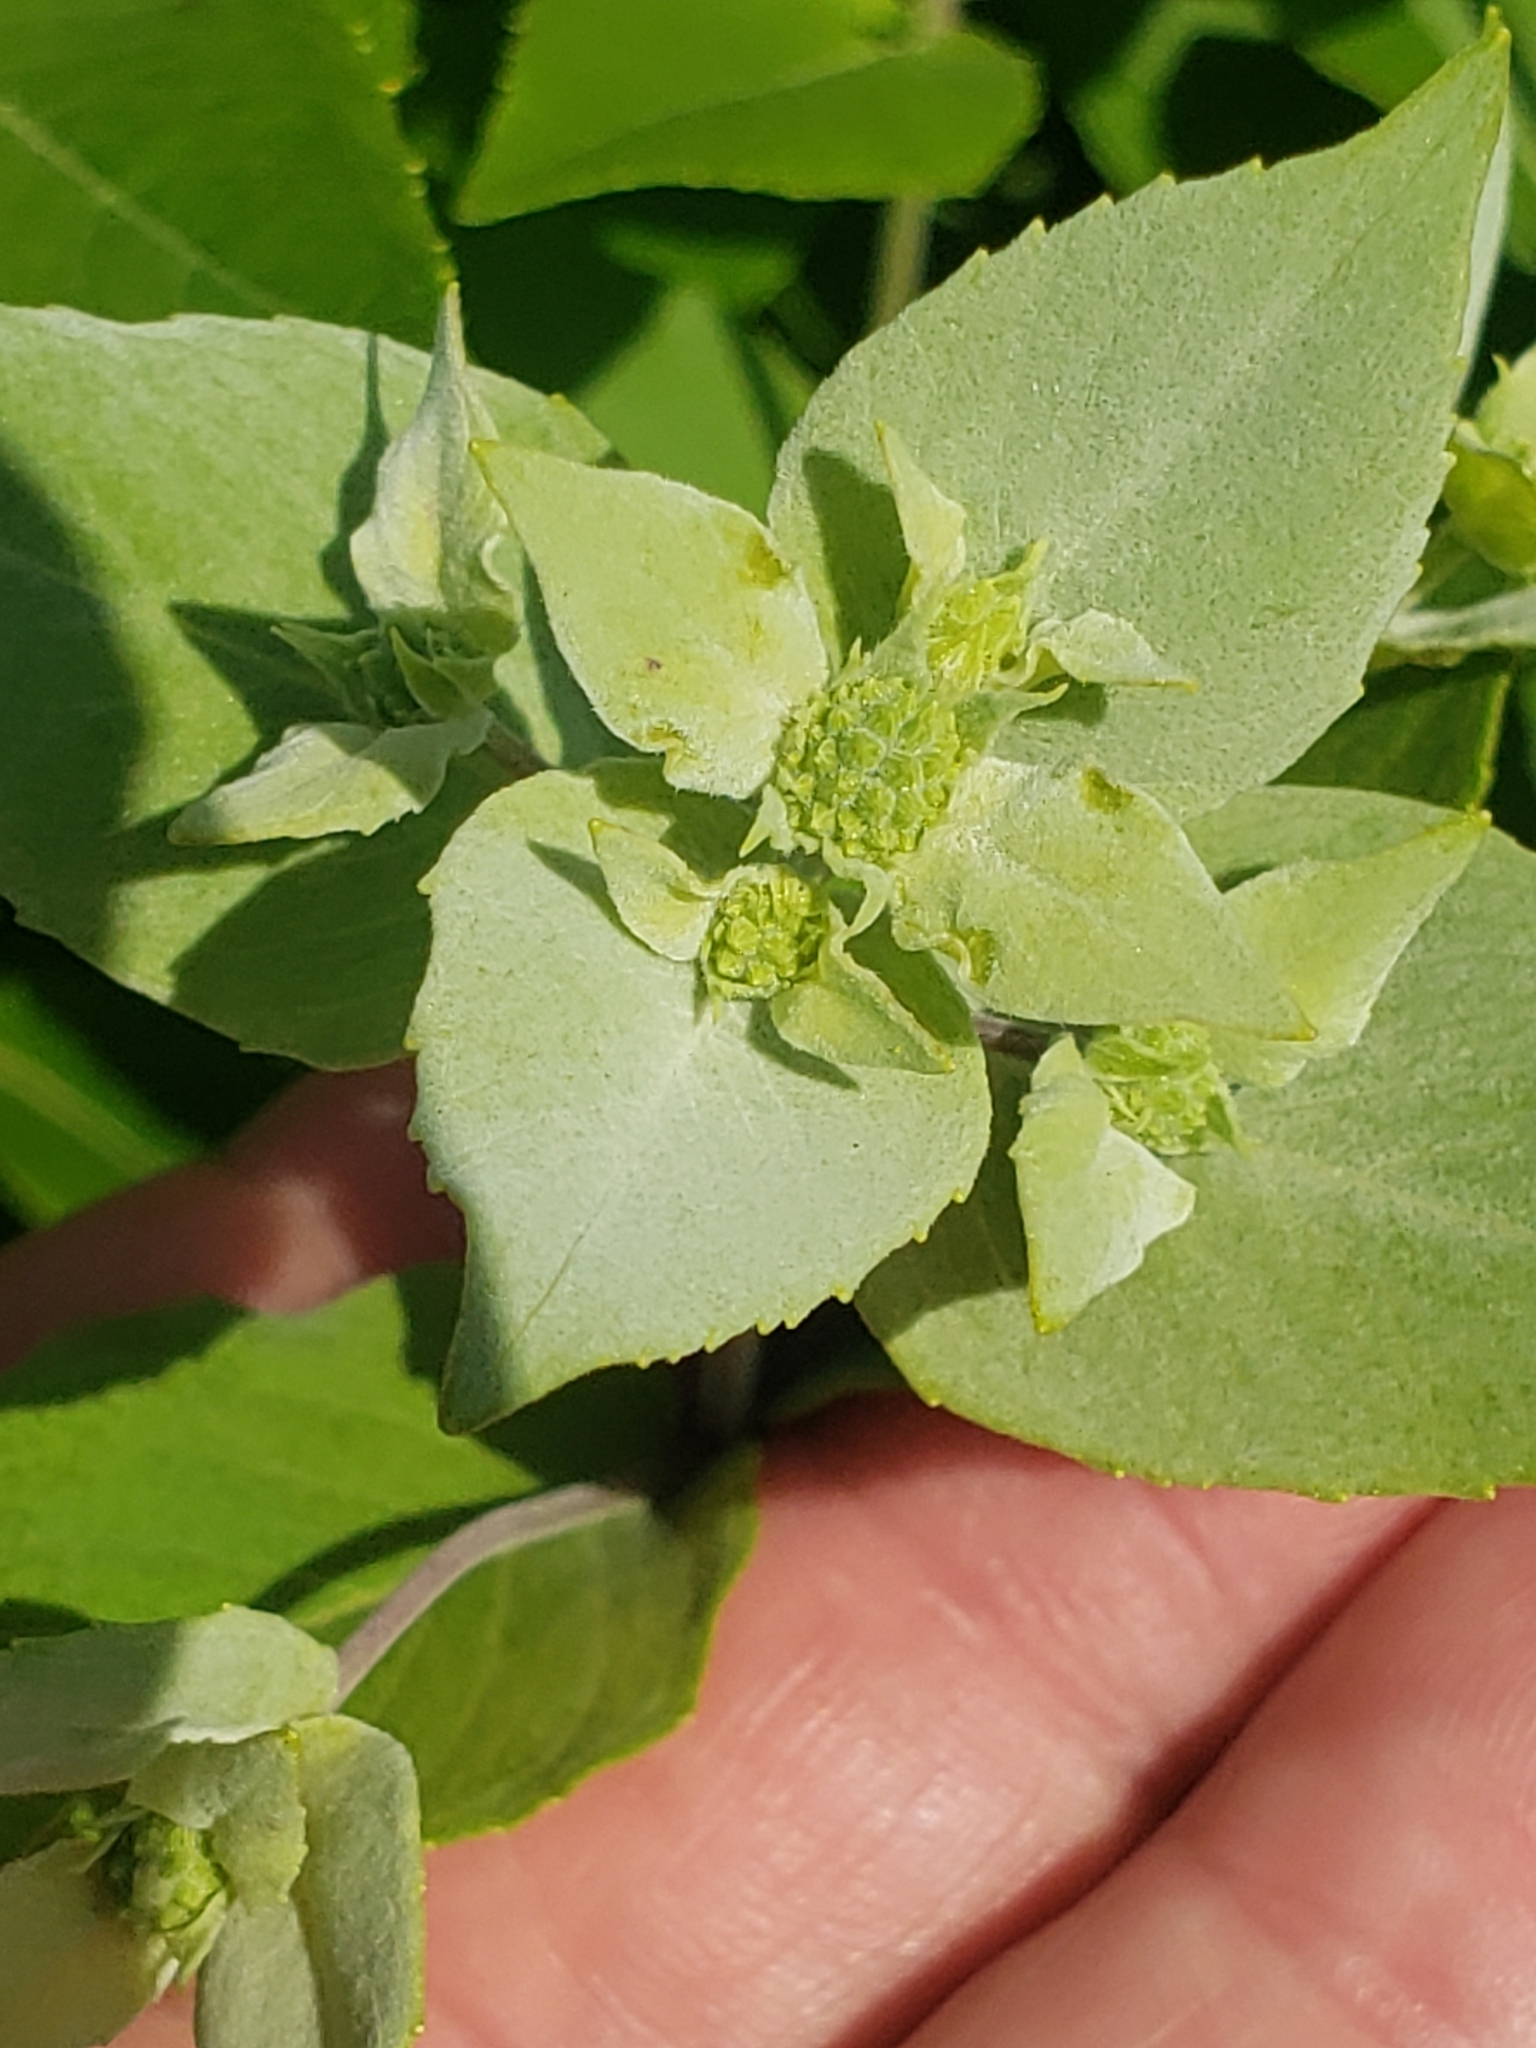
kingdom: Plantae
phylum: Tracheophyta
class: Magnoliopsida
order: Lamiales
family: Lamiaceae
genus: Pycnanthemum
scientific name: Pycnanthemum muticum
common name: Blunt mountain-mint
